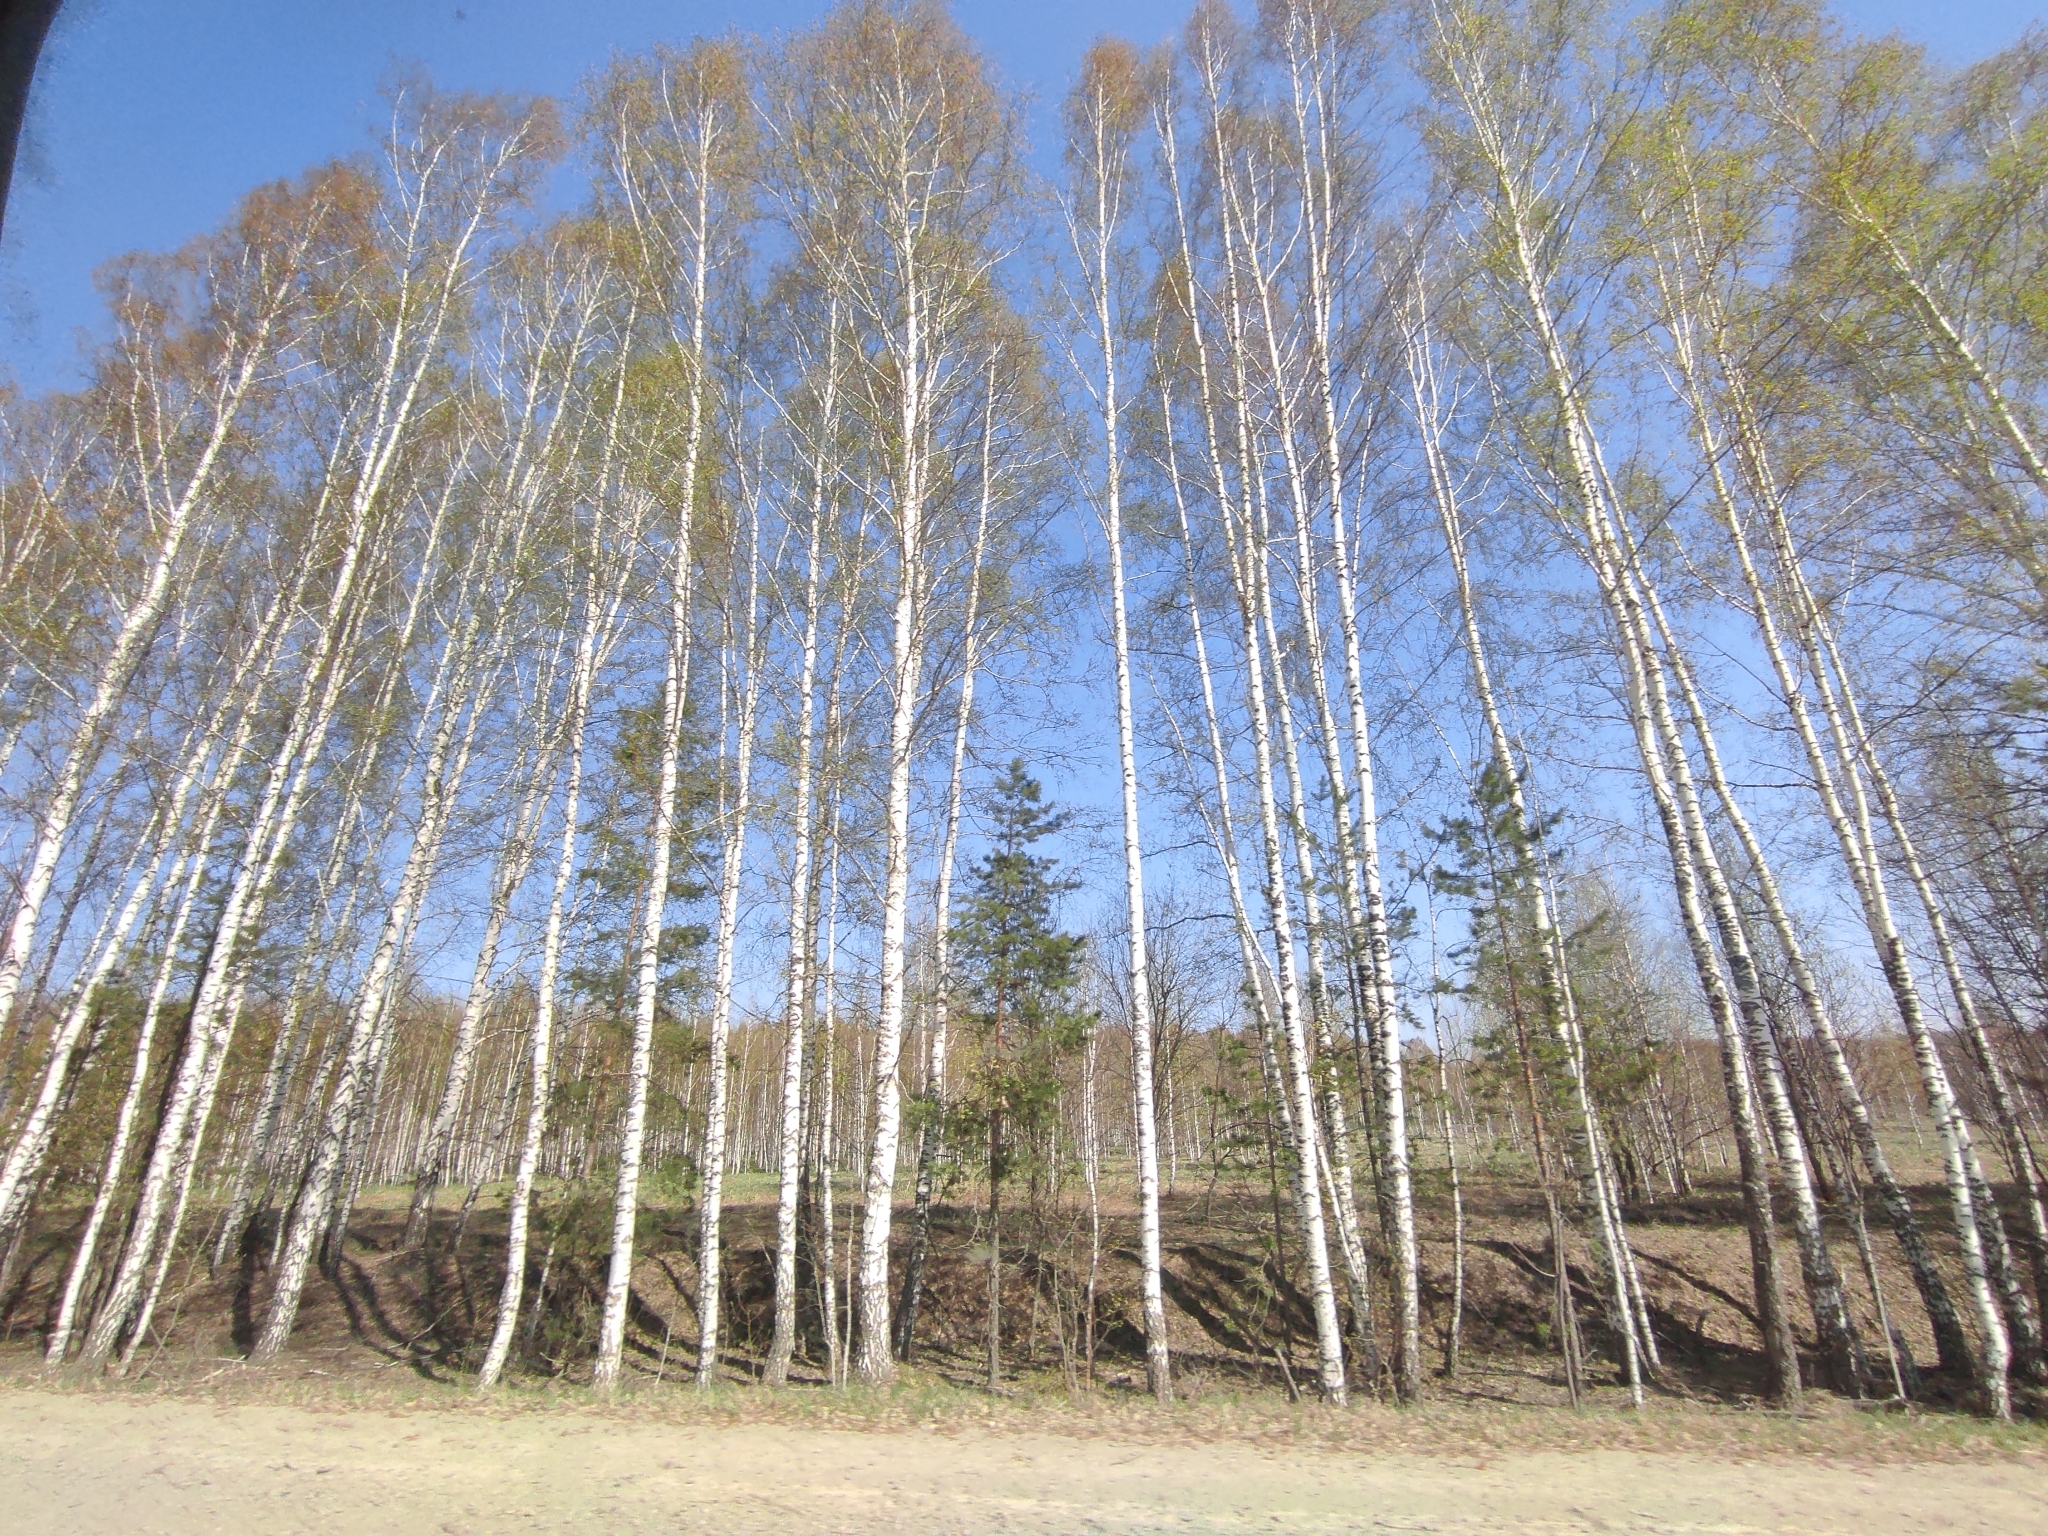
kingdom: Plantae
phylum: Tracheophyta
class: Magnoliopsida
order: Fagales
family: Betulaceae
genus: Betula
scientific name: Betula pendula
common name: Silver birch
